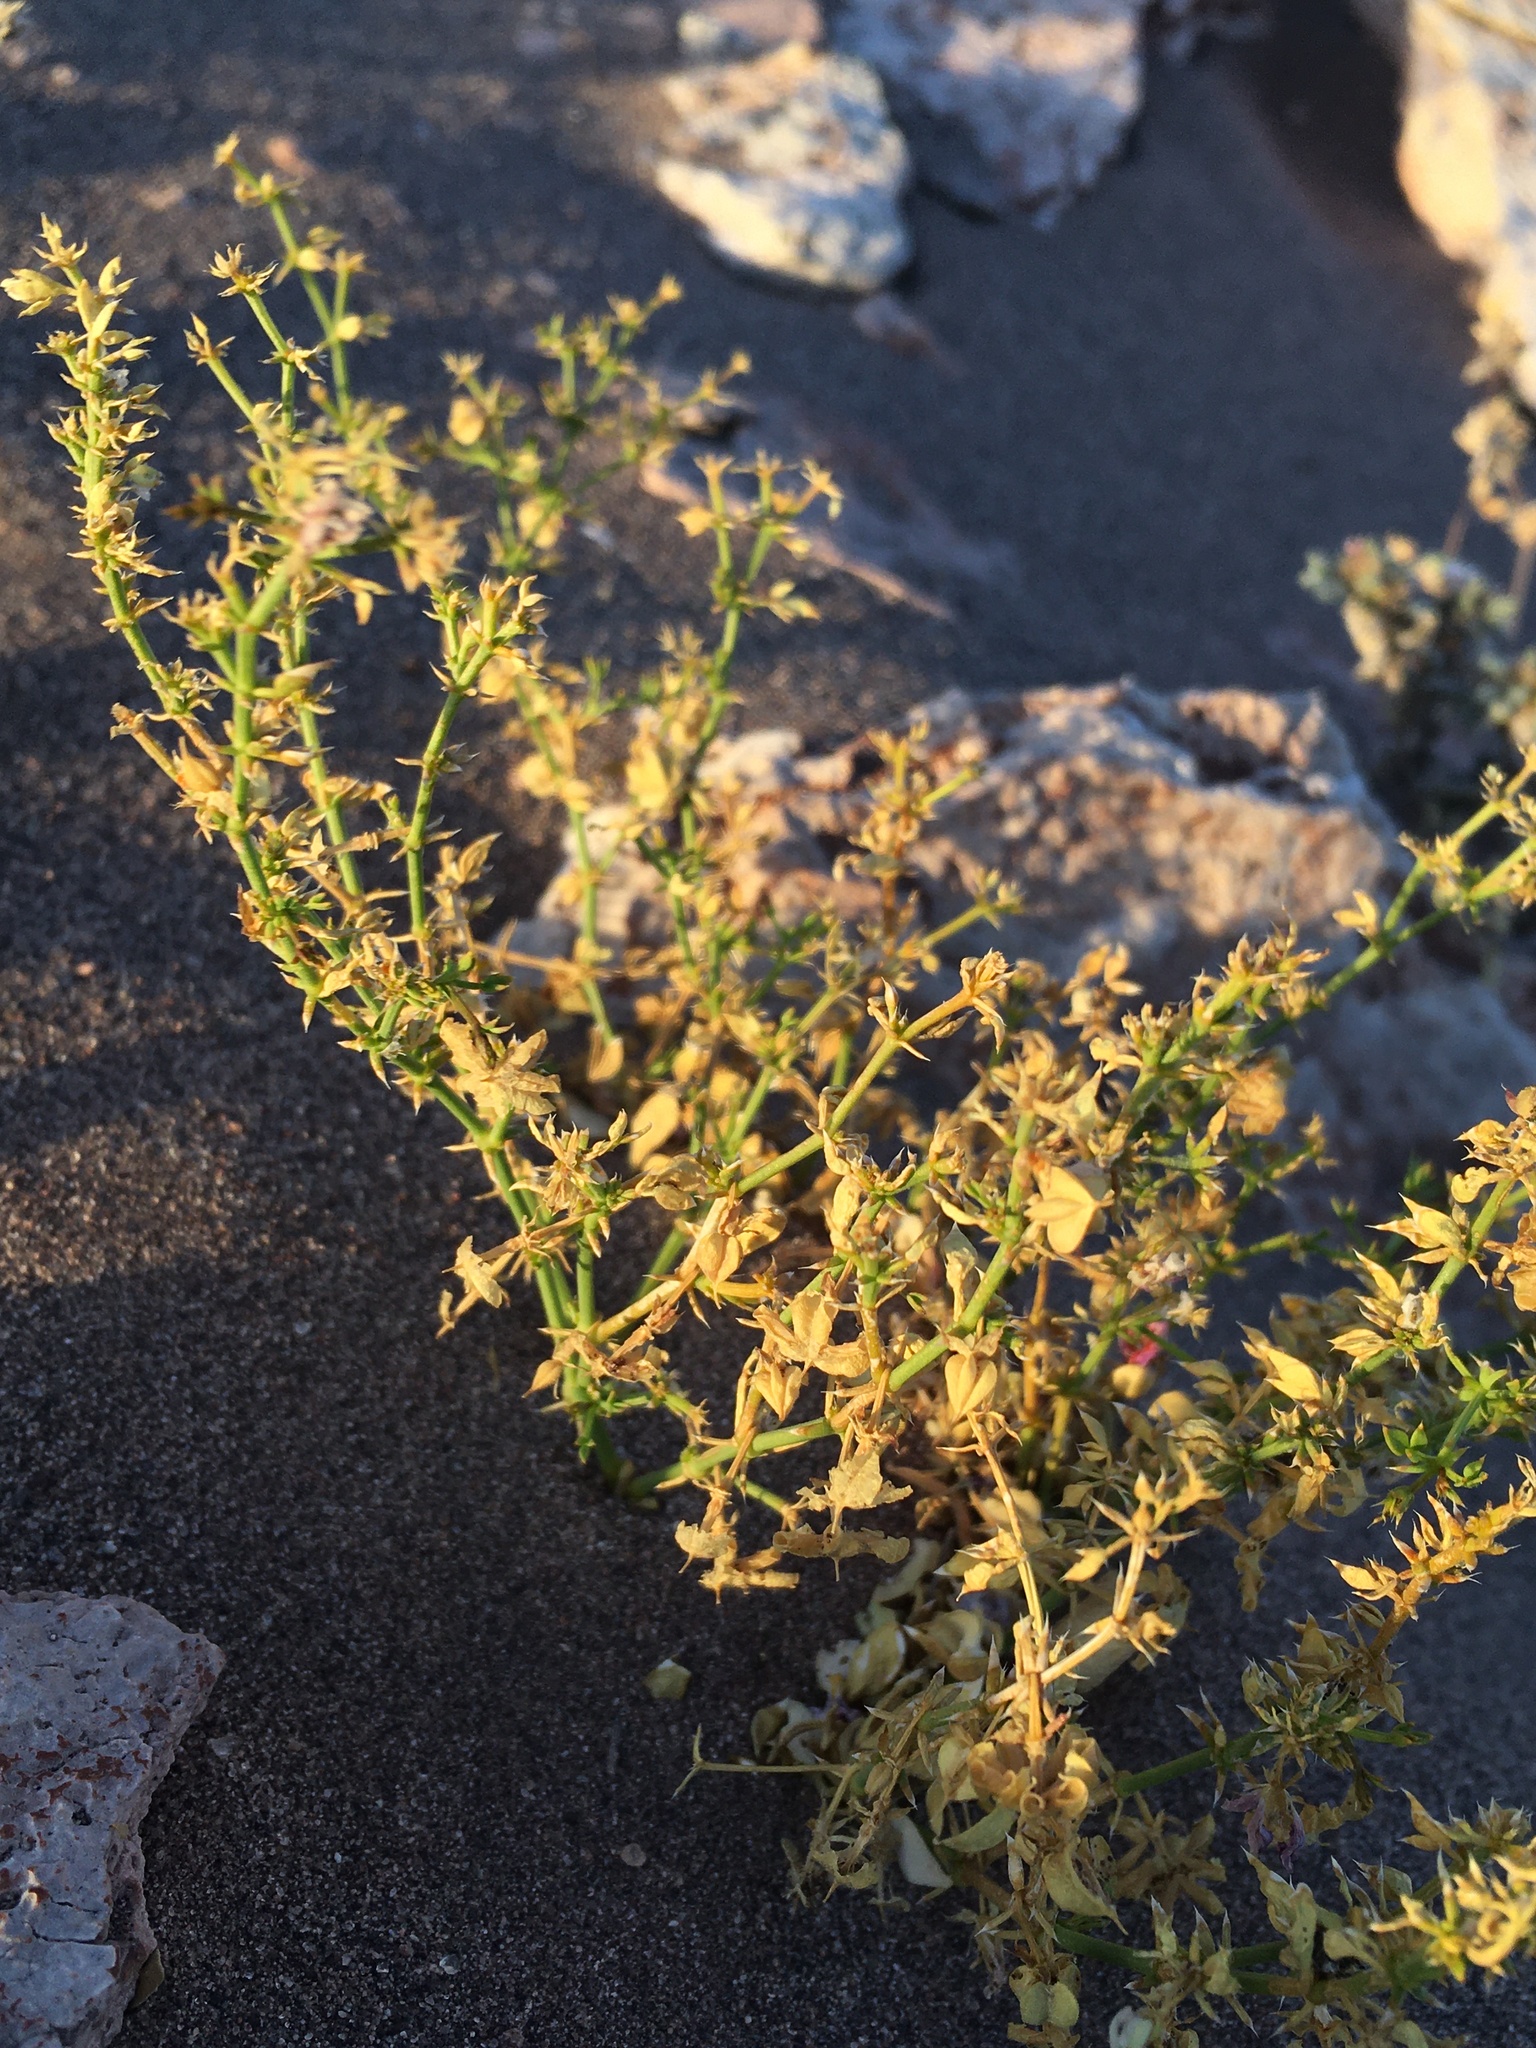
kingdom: Plantae
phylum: Tracheophyta
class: Magnoliopsida
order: Zygophyllales
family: Zygophyllaceae
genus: Fagonia
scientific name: Fagonia chilensis
